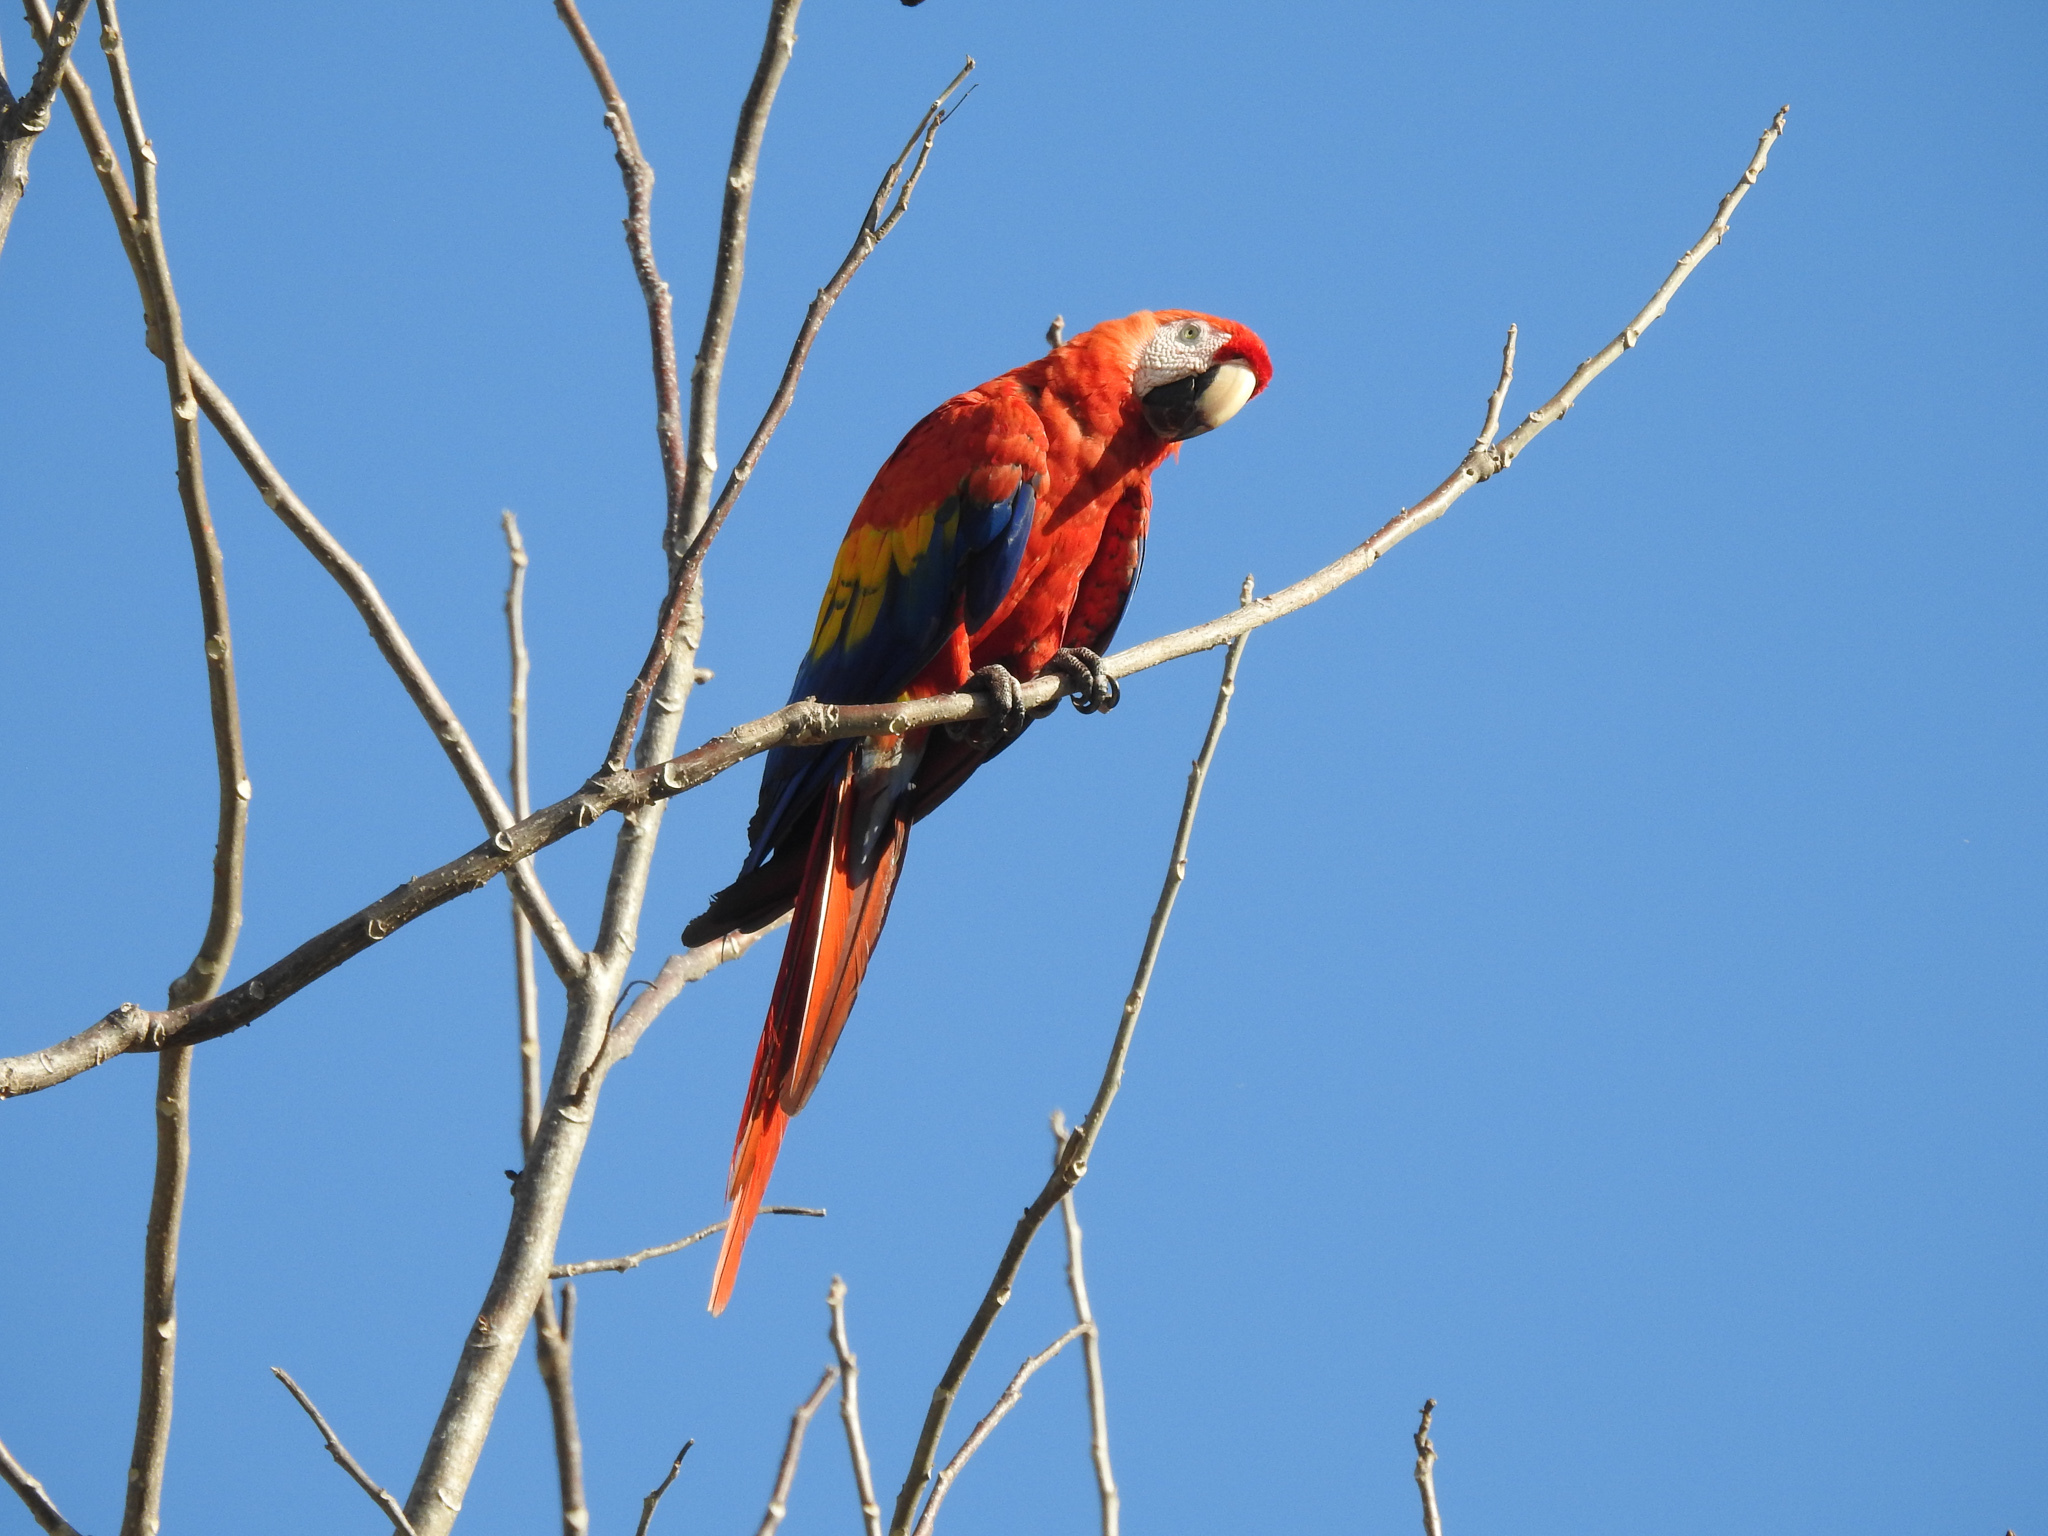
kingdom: Animalia
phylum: Chordata
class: Aves
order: Psittaciformes
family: Psittacidae
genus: Ara
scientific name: Ara macao
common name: Scarlet macaw
